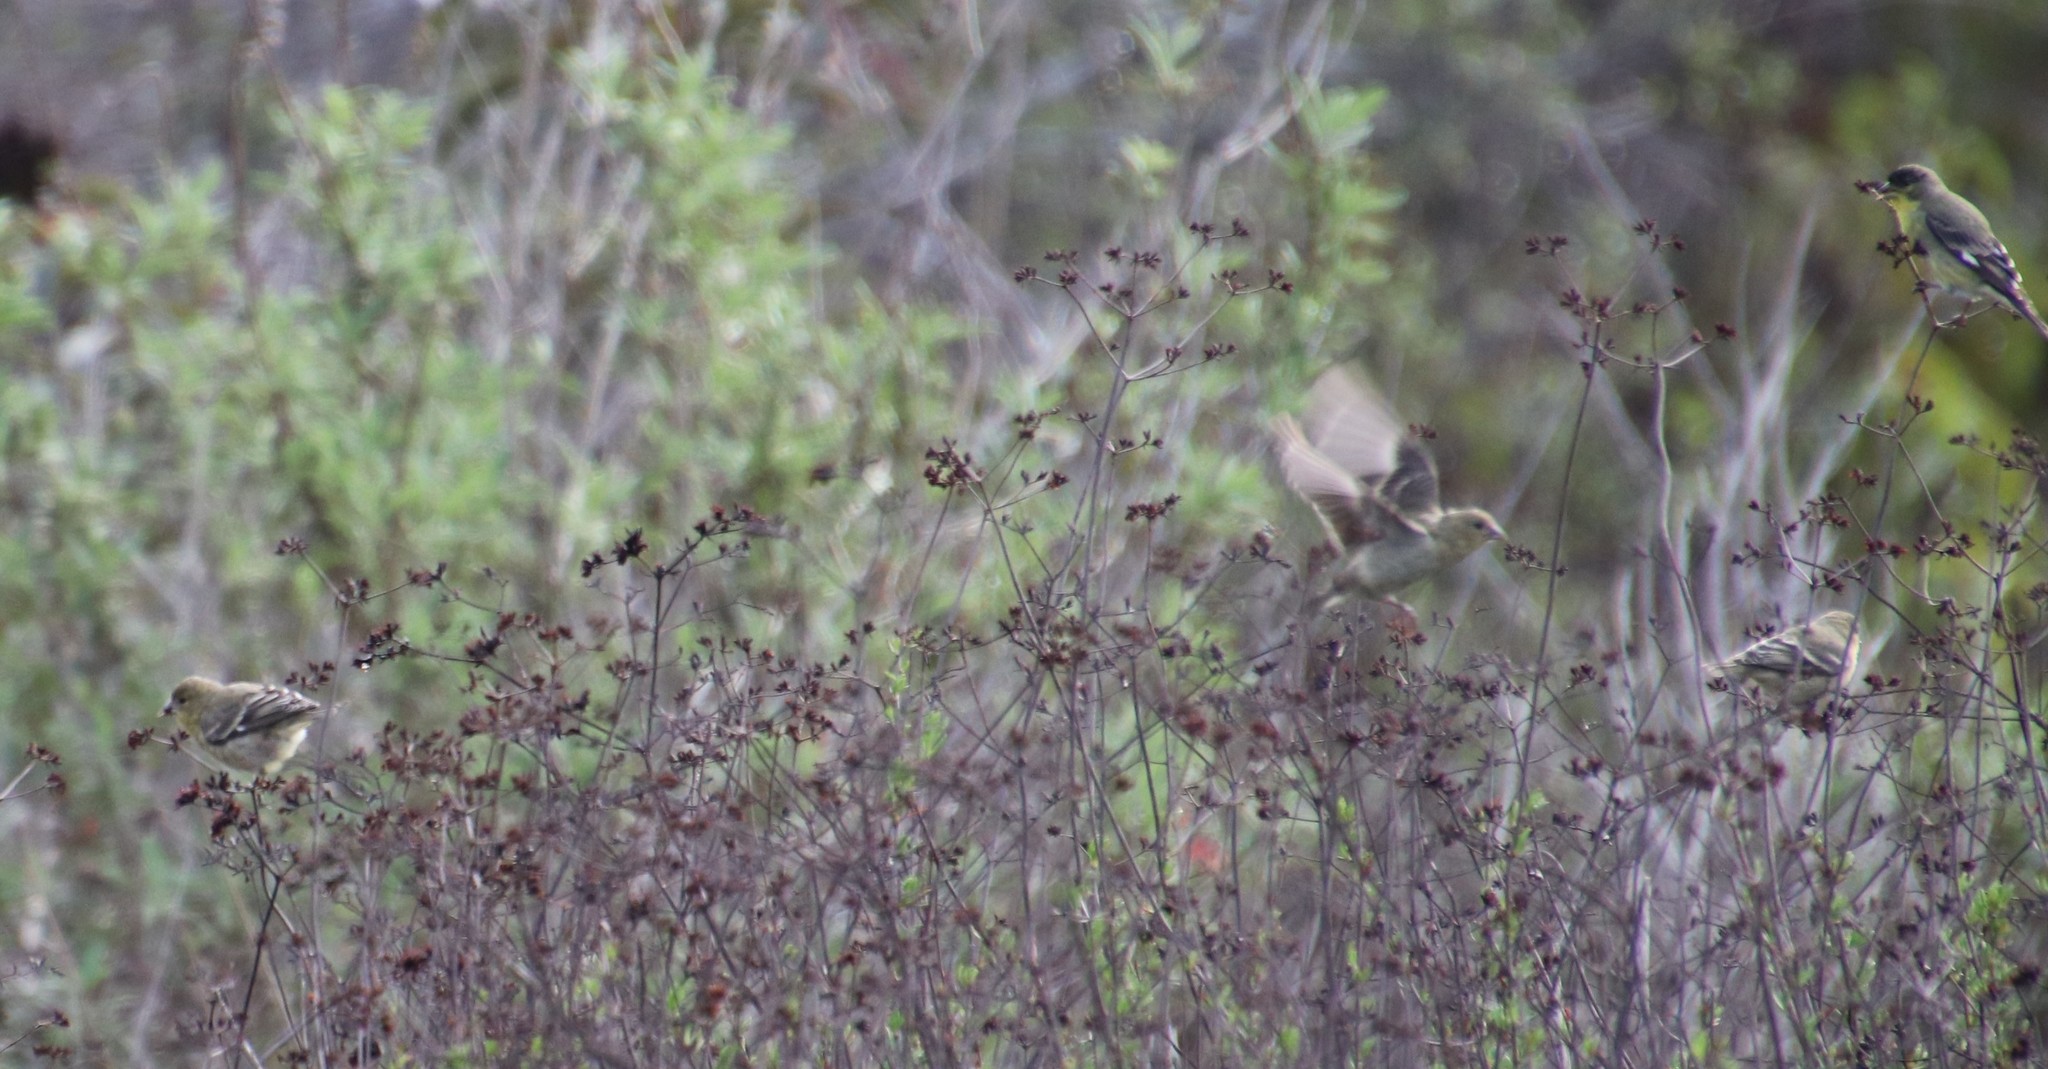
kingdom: Animalia
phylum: Chordata
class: Aves
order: Passeriformes
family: Fringillidae
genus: Spinus
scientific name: Spinus psaltria
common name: Lesser goldfinch
